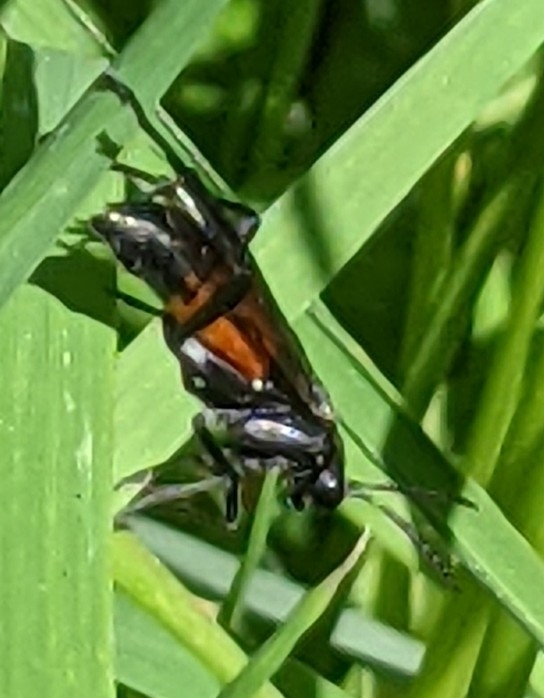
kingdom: Animalia
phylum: Arthropoda
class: Insecta
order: Hymenoptera
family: Tenthredinidae
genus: Macrophya
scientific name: Macrophya annulata
